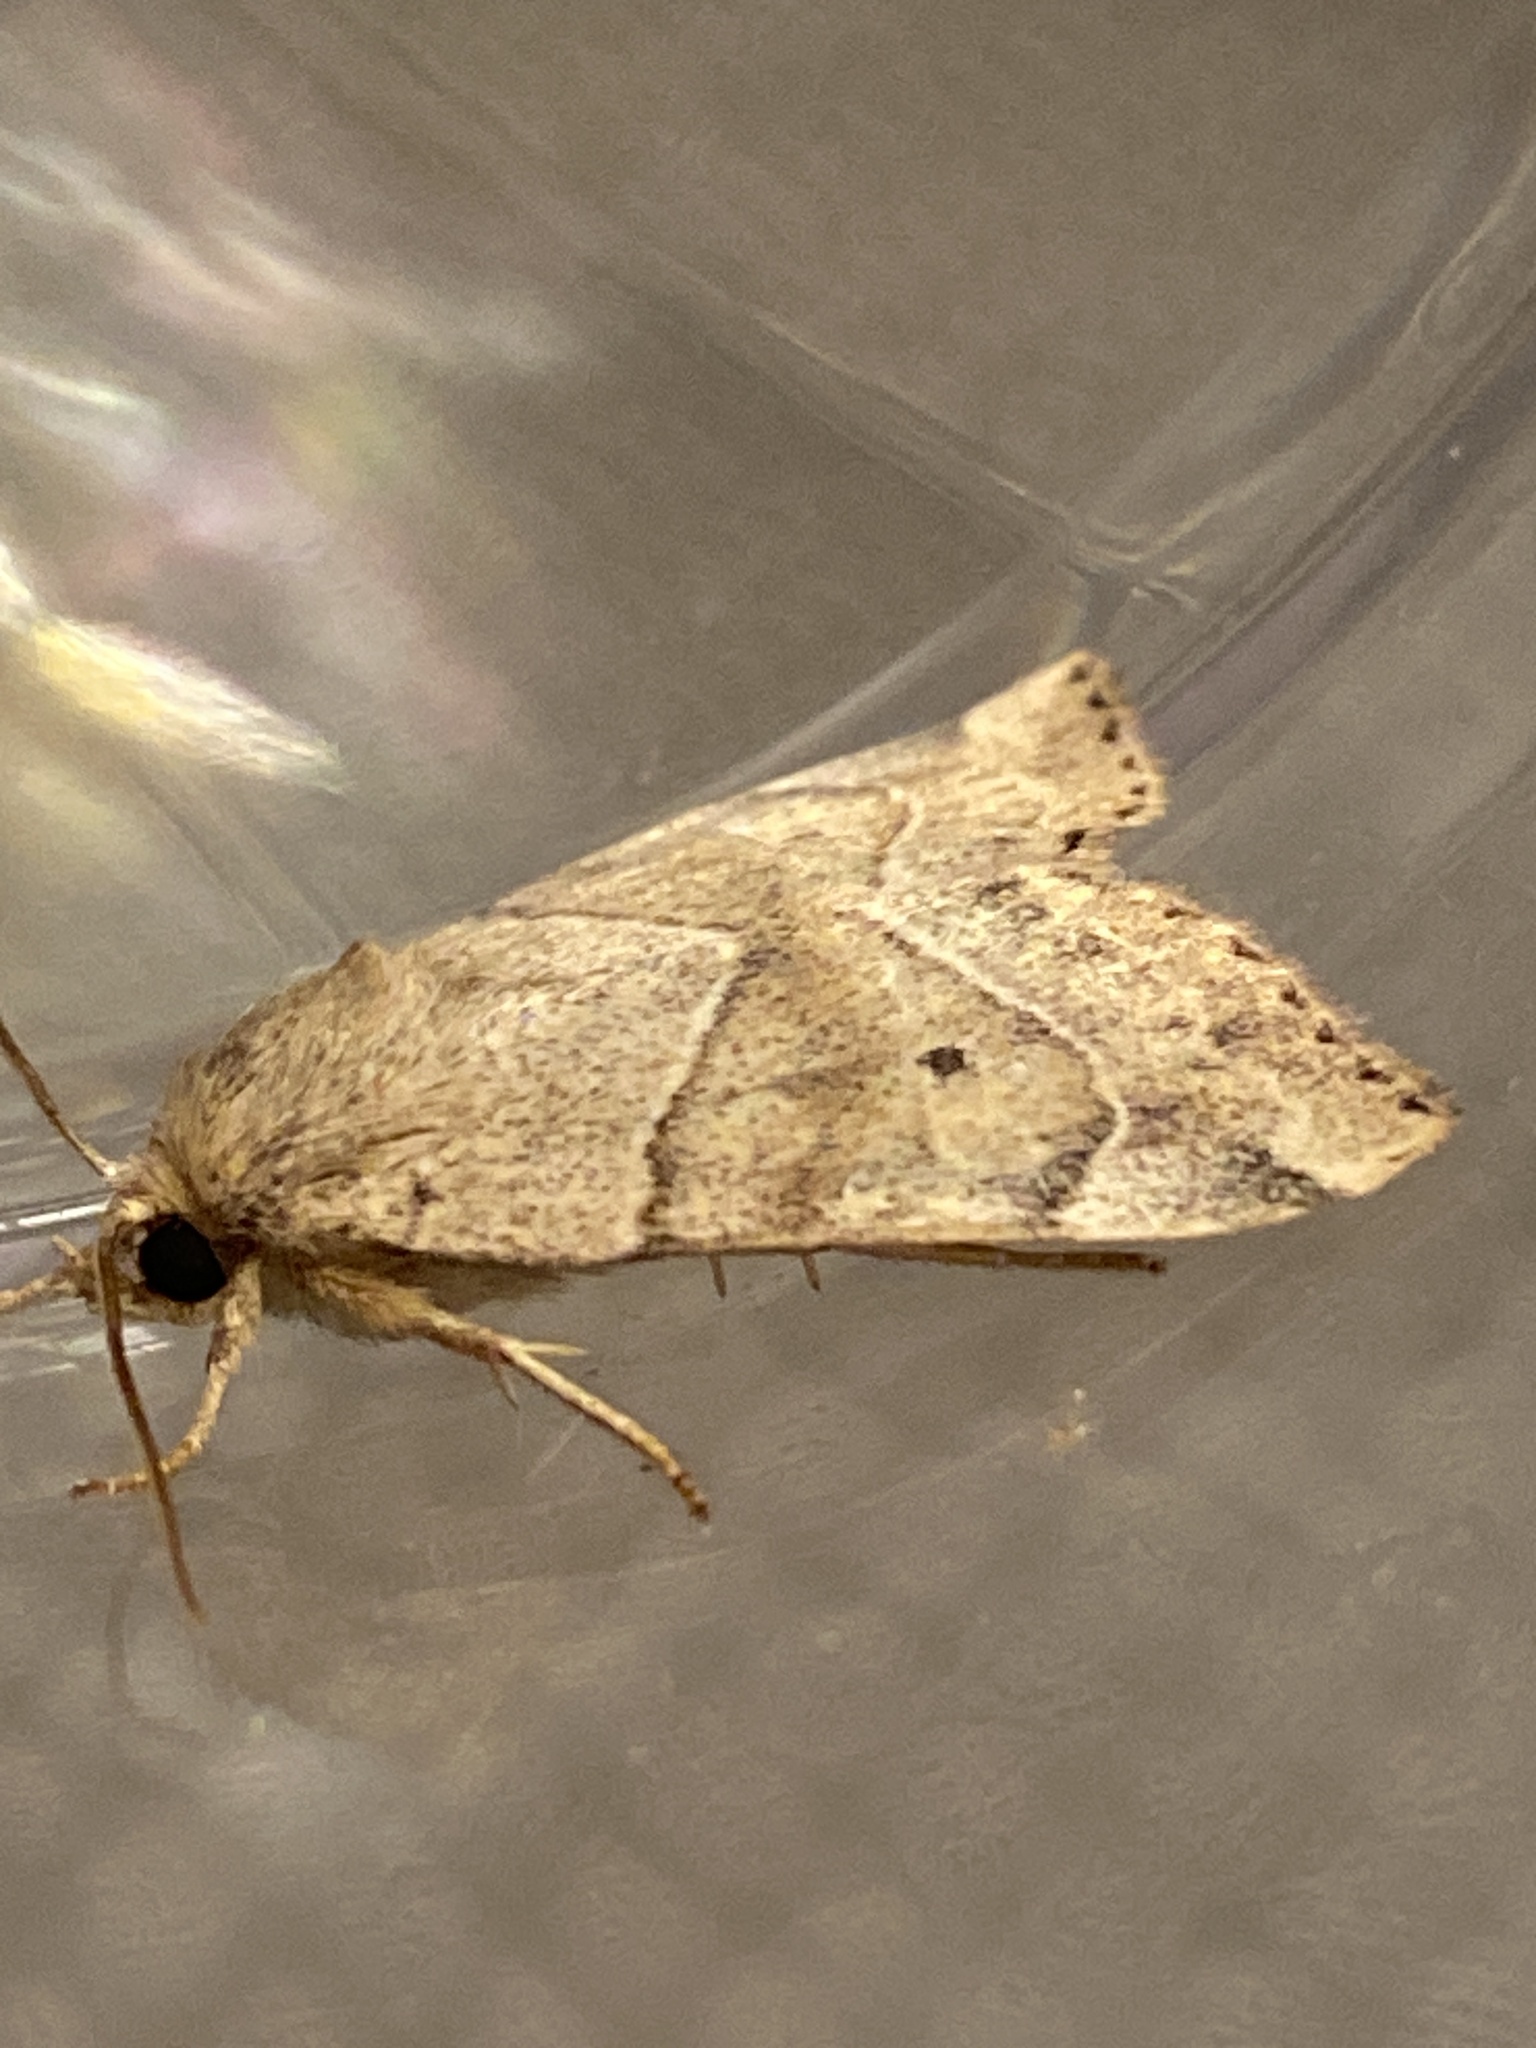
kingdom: Animalia
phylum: Arthropoda
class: Insecta
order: Lepidoptera
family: Noctuidae
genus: Cosmia
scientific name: Cosmia trapezina
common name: Dun-bar
